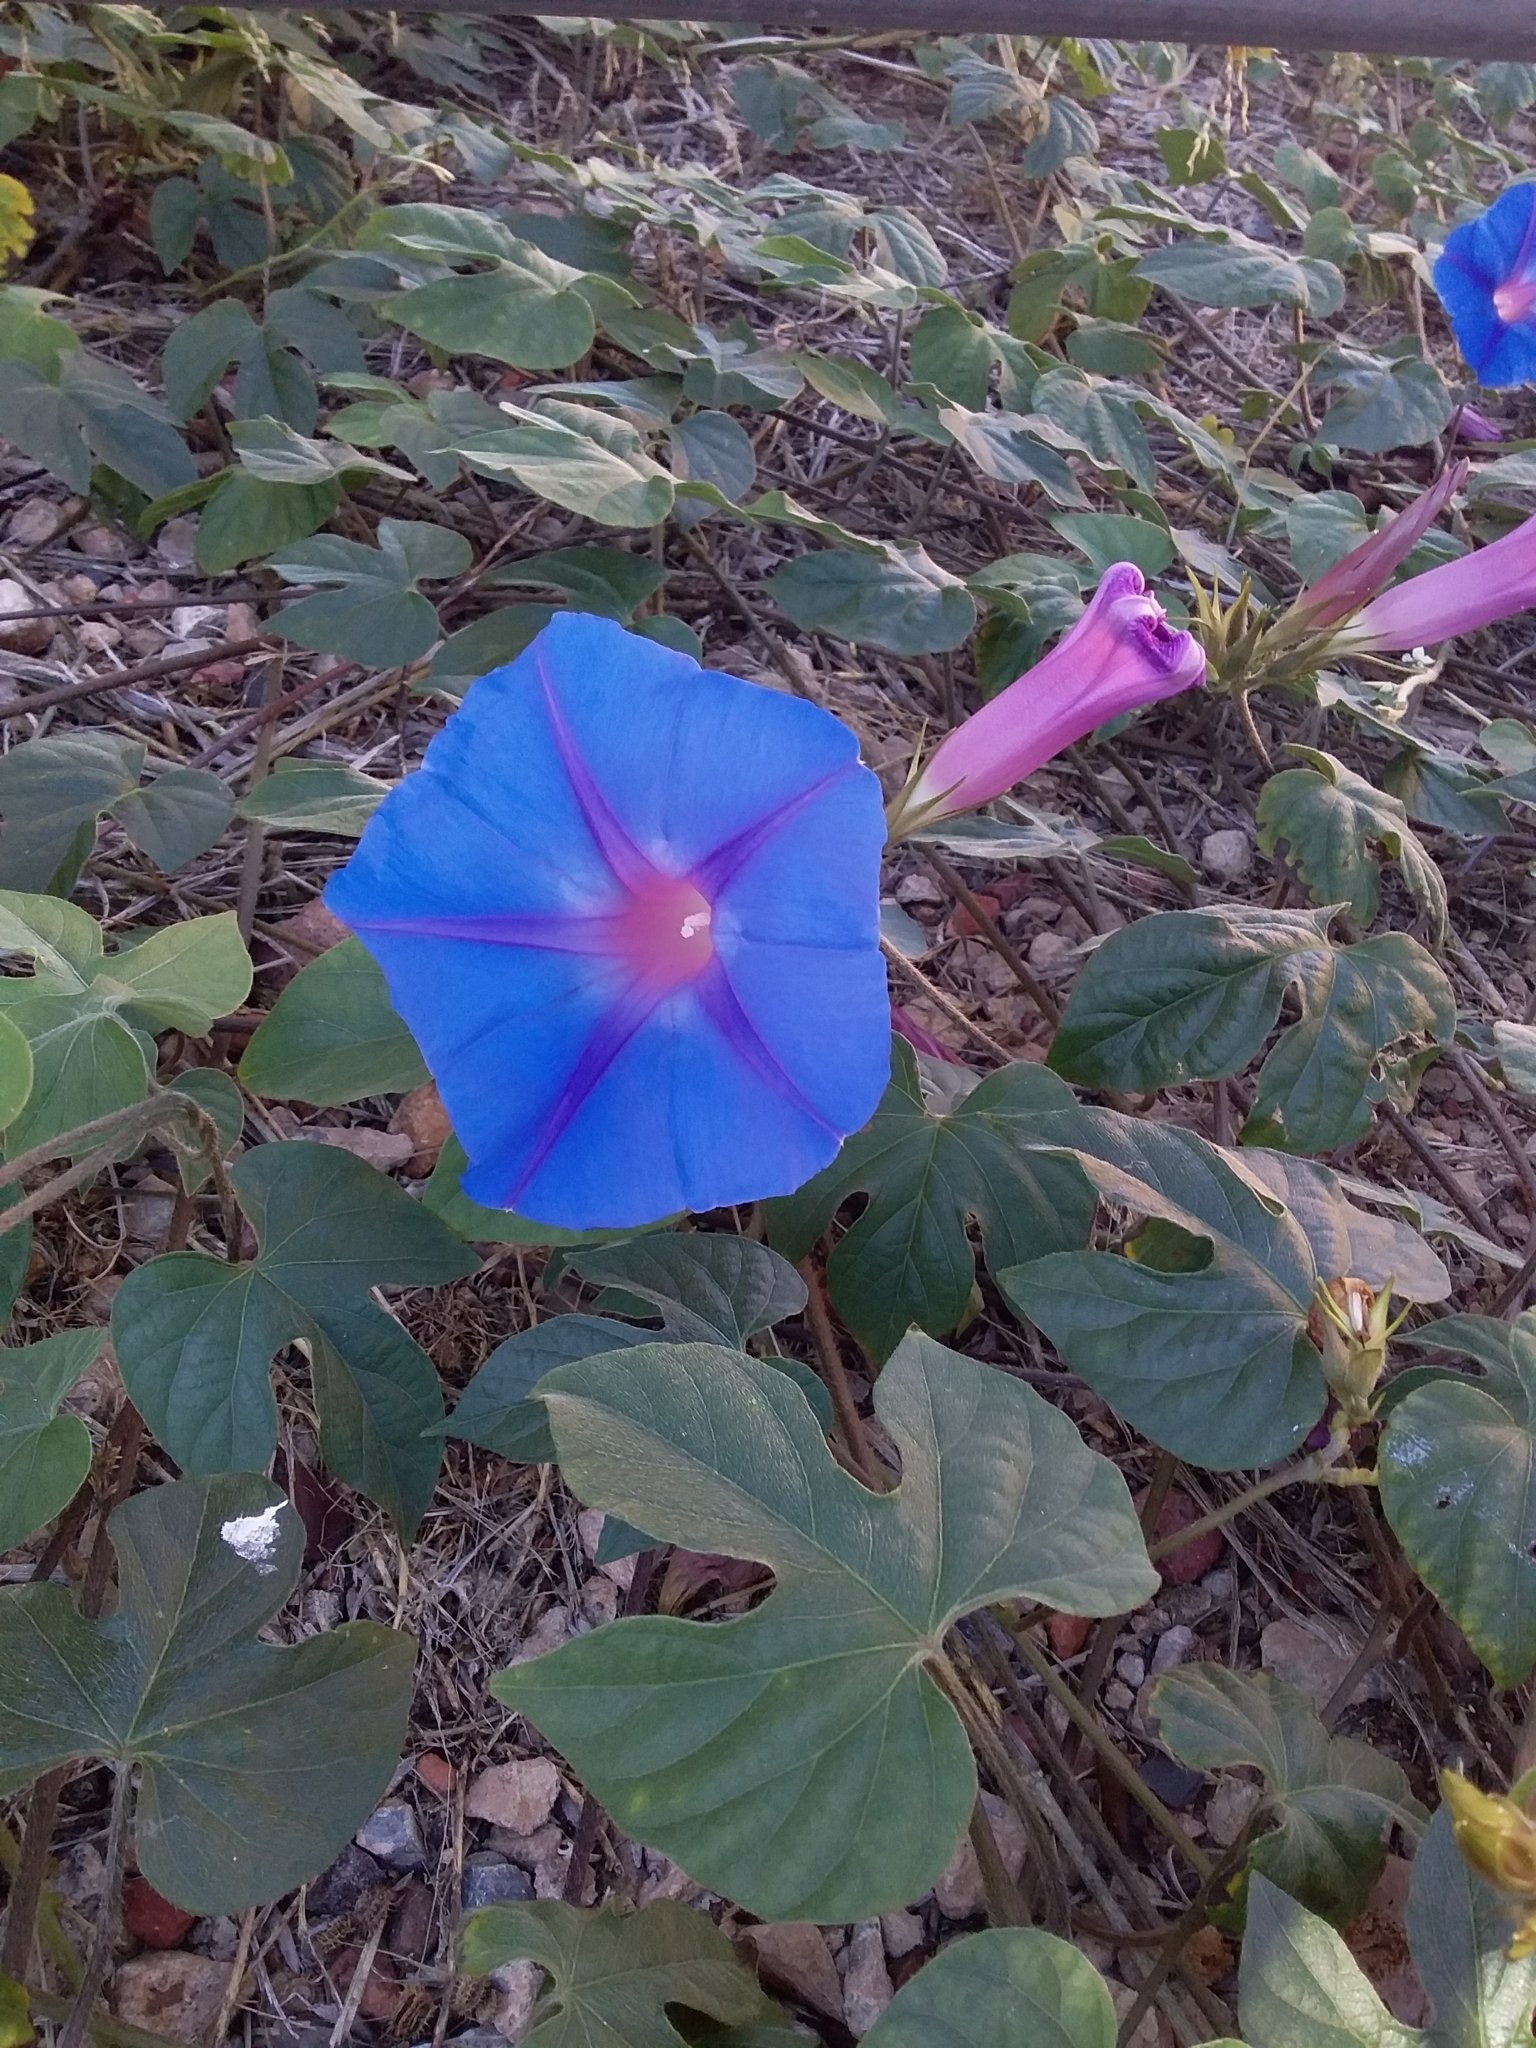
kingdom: Plantae
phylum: Tracheophyta
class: Magnoliopsida
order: Solanales
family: Convolvulaceae
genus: Ipomoea
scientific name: Ipomoea indica
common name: Blue dawnflower
